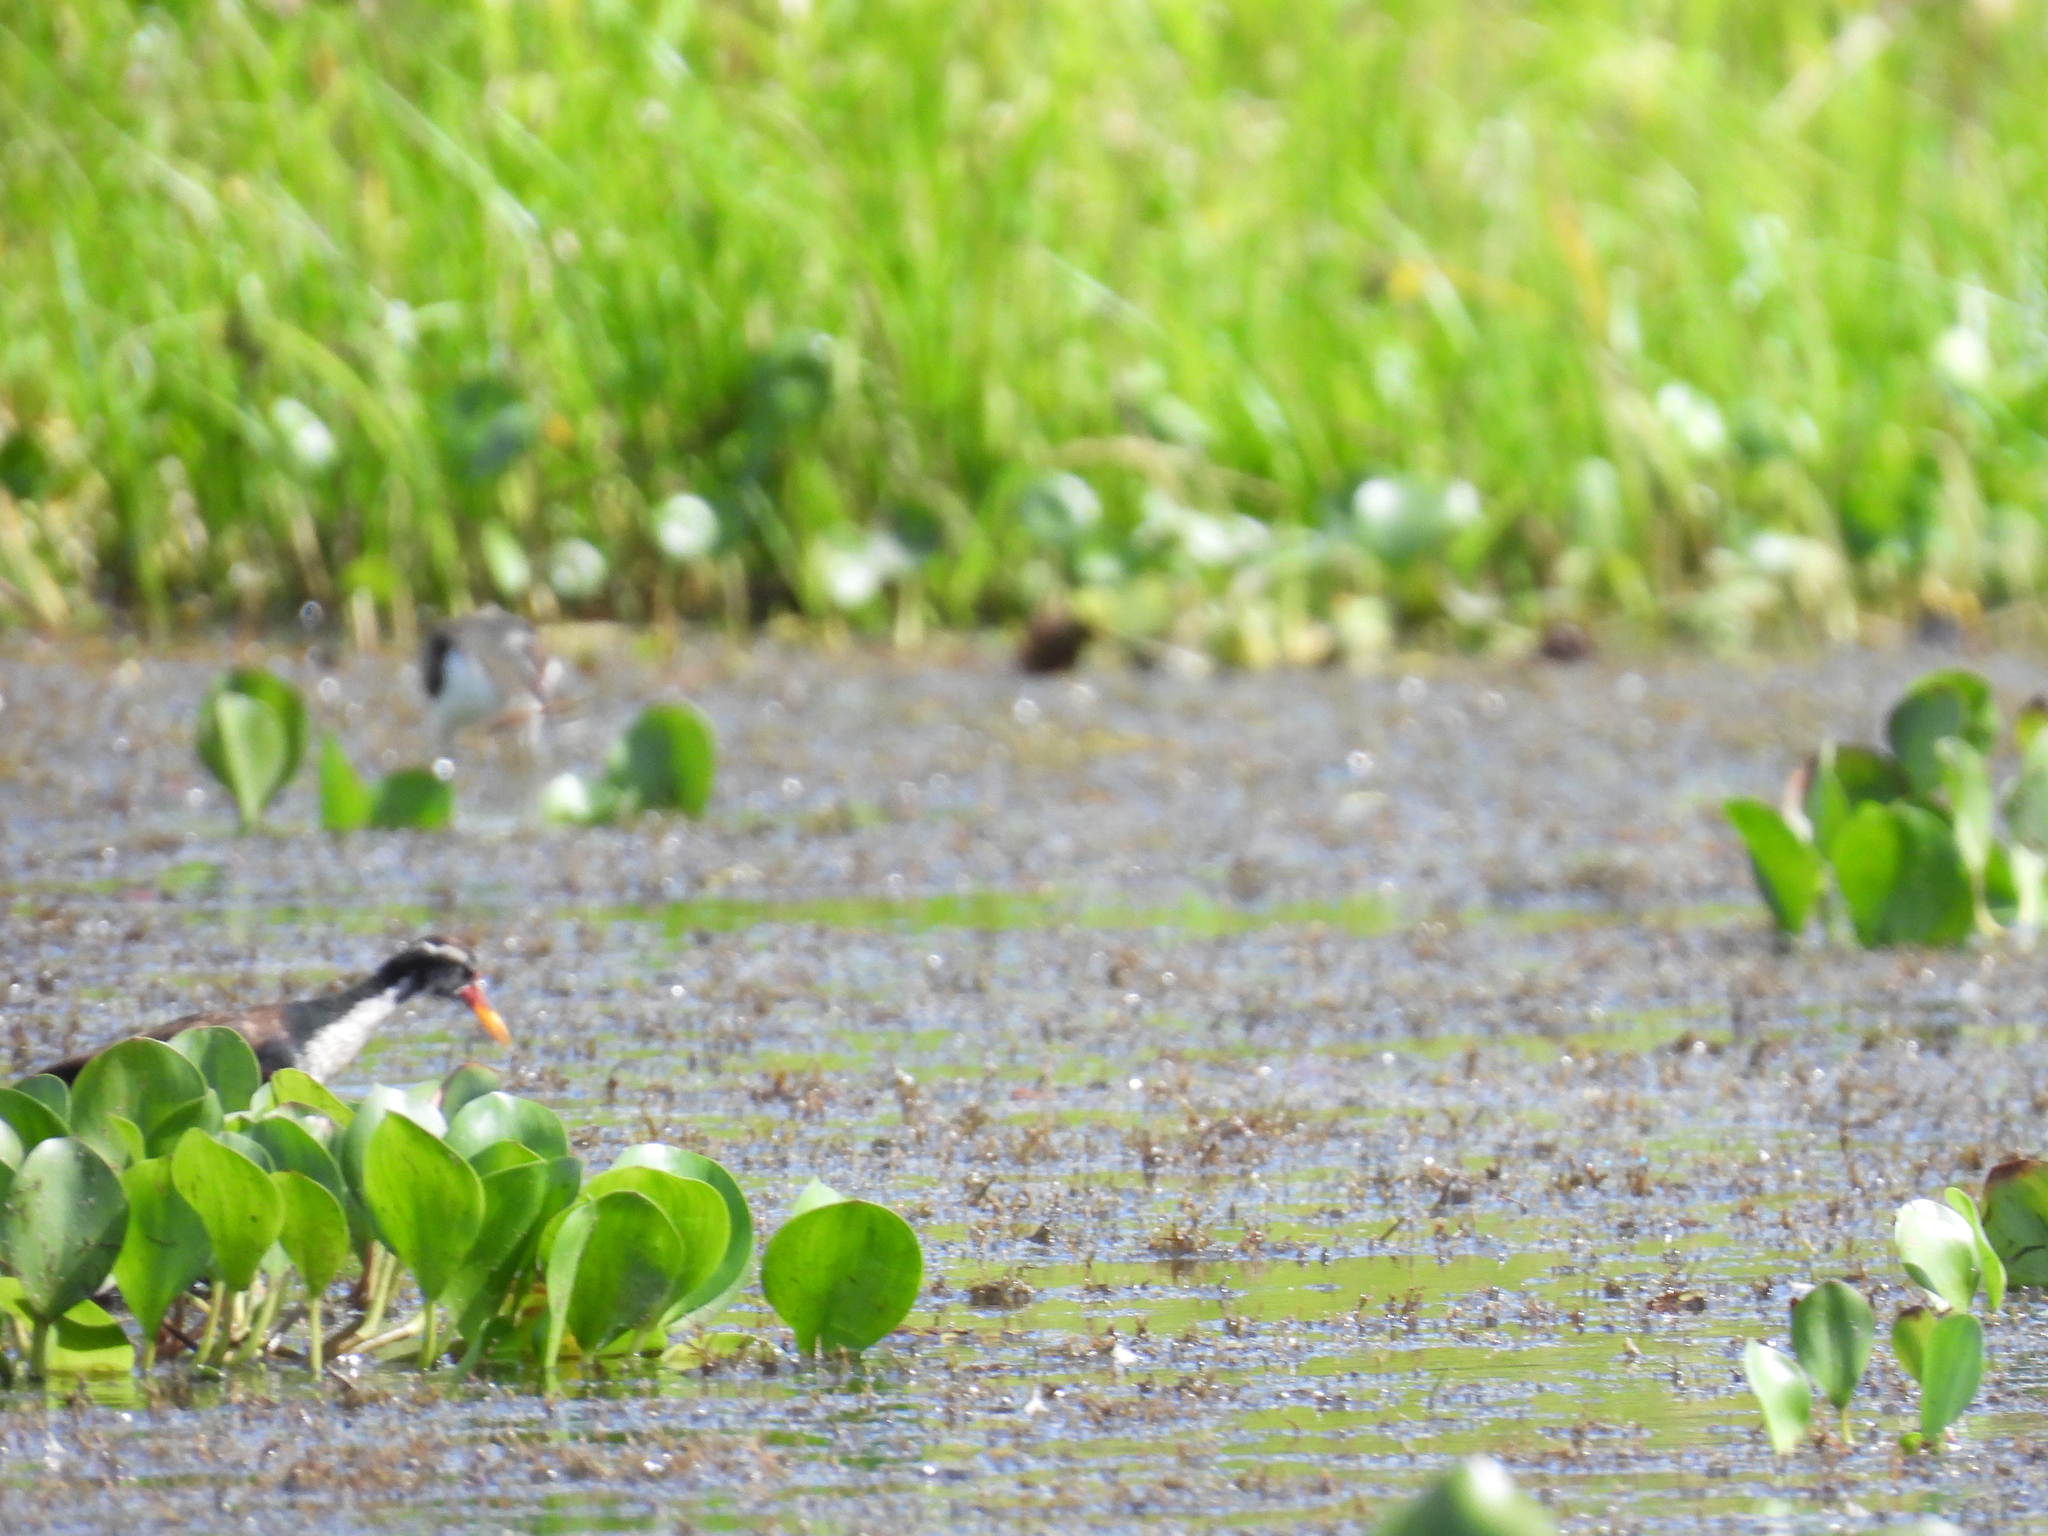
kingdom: Animalia
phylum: Chordata
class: Aves
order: Charadriiformes
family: Jacanidae
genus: Jacana
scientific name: Jacana jacana
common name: Wattled jacana
